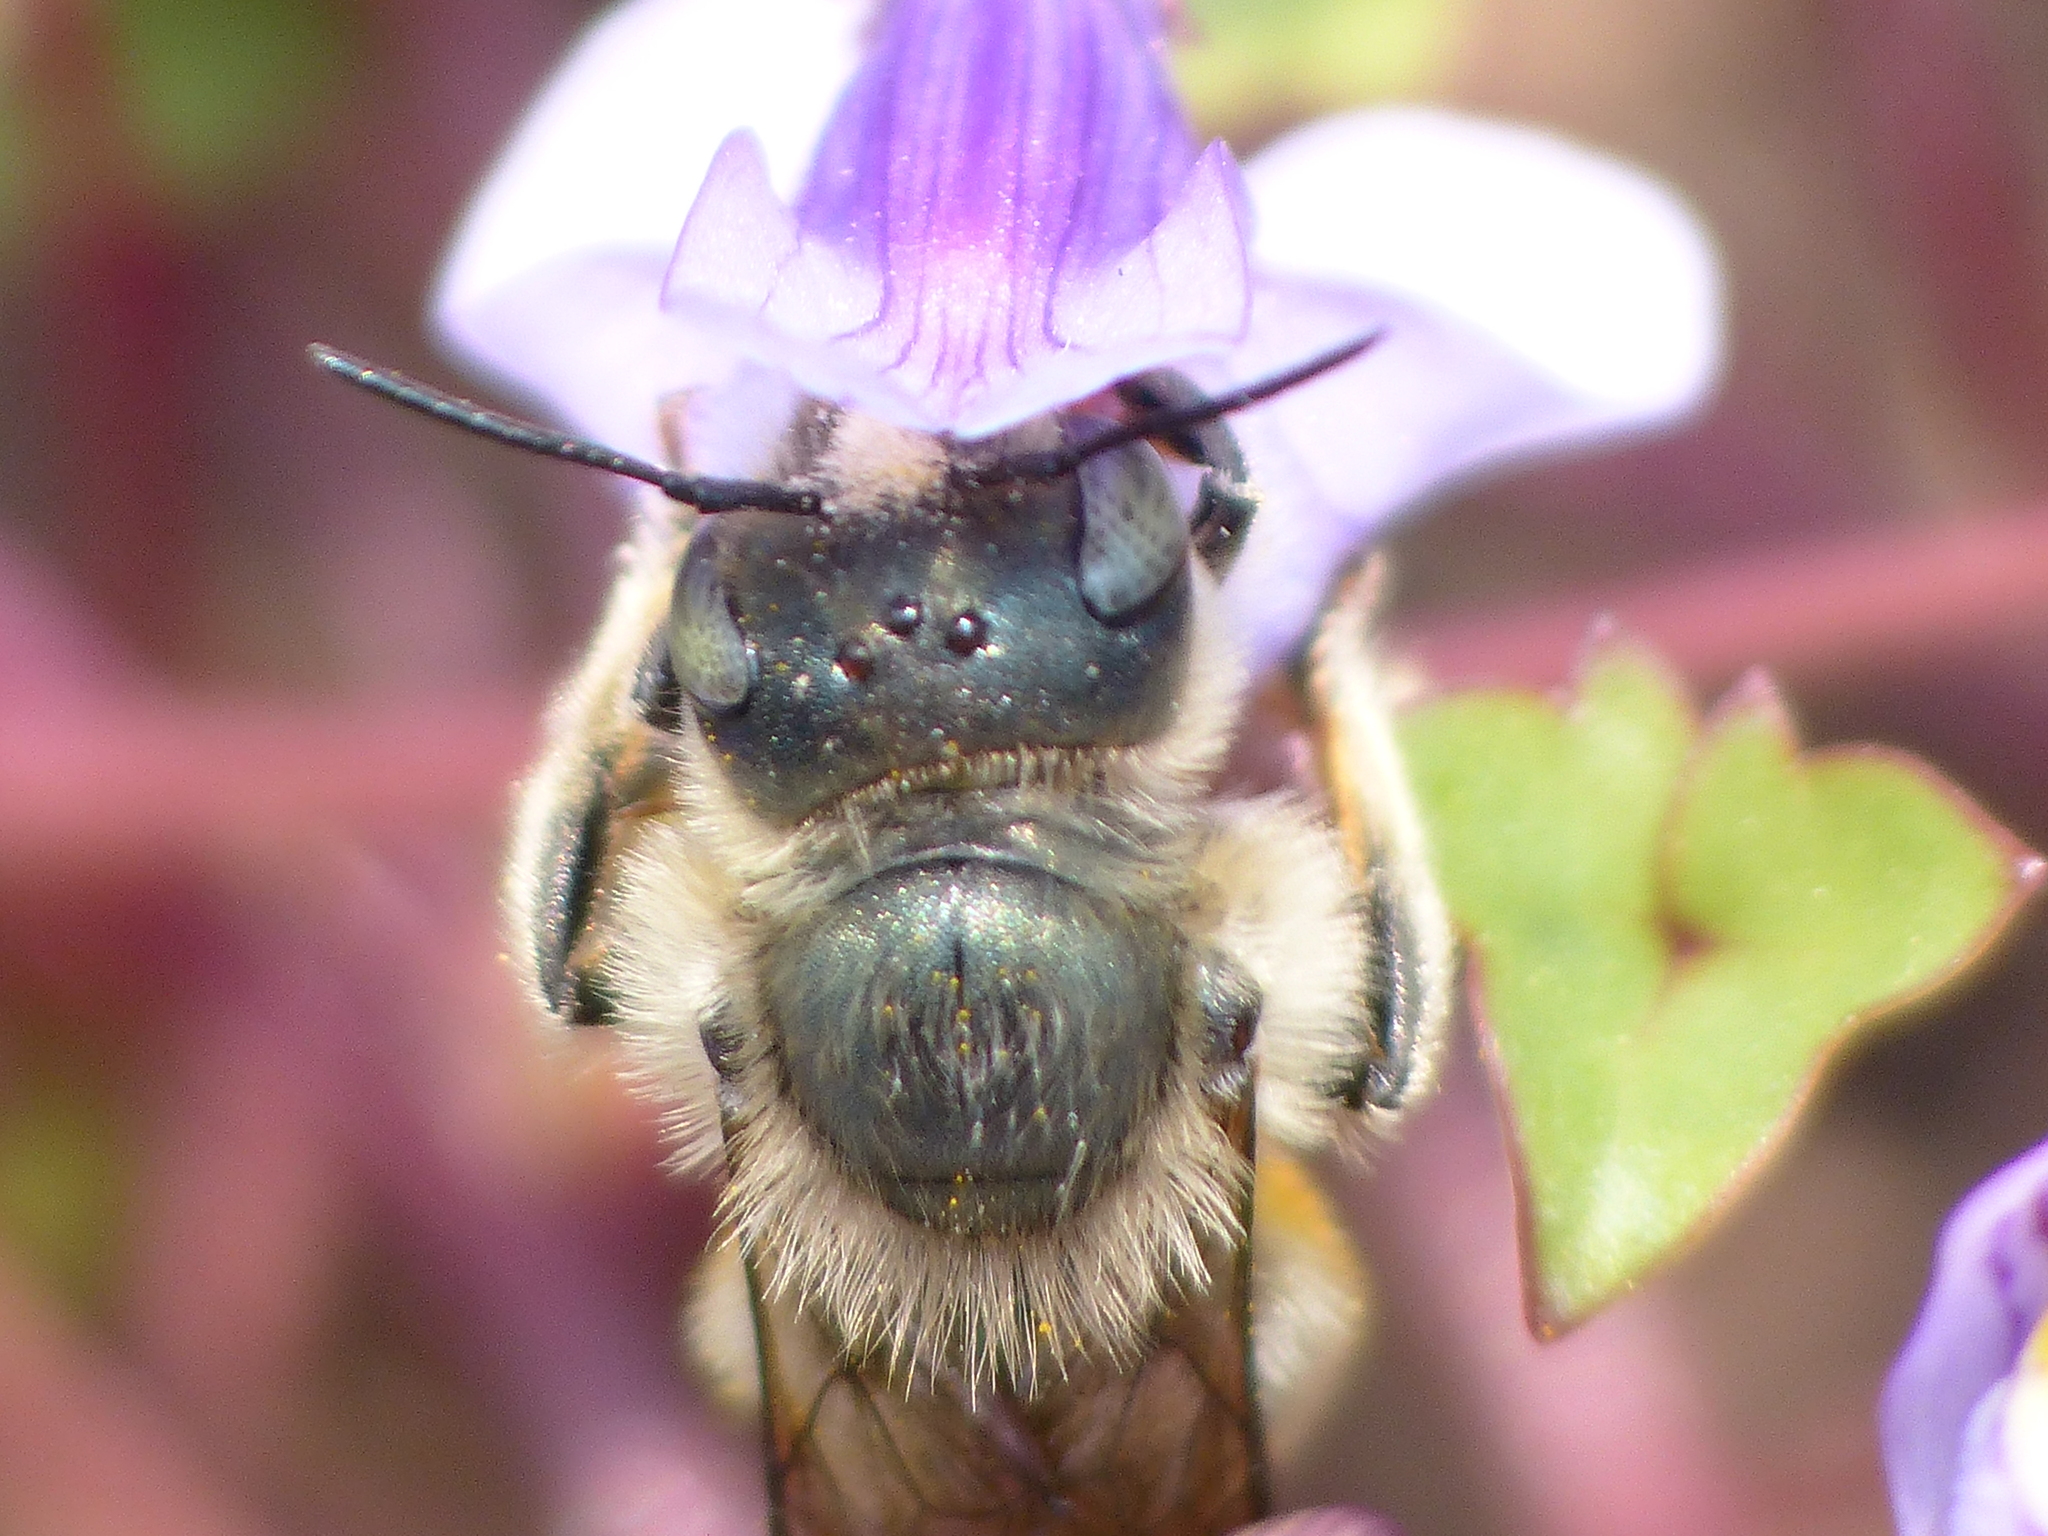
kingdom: Animalia
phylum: Arthropoda
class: Insecta
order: Hymenoptera
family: Megachilidae
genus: Osmia
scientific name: Osmia orientalis
